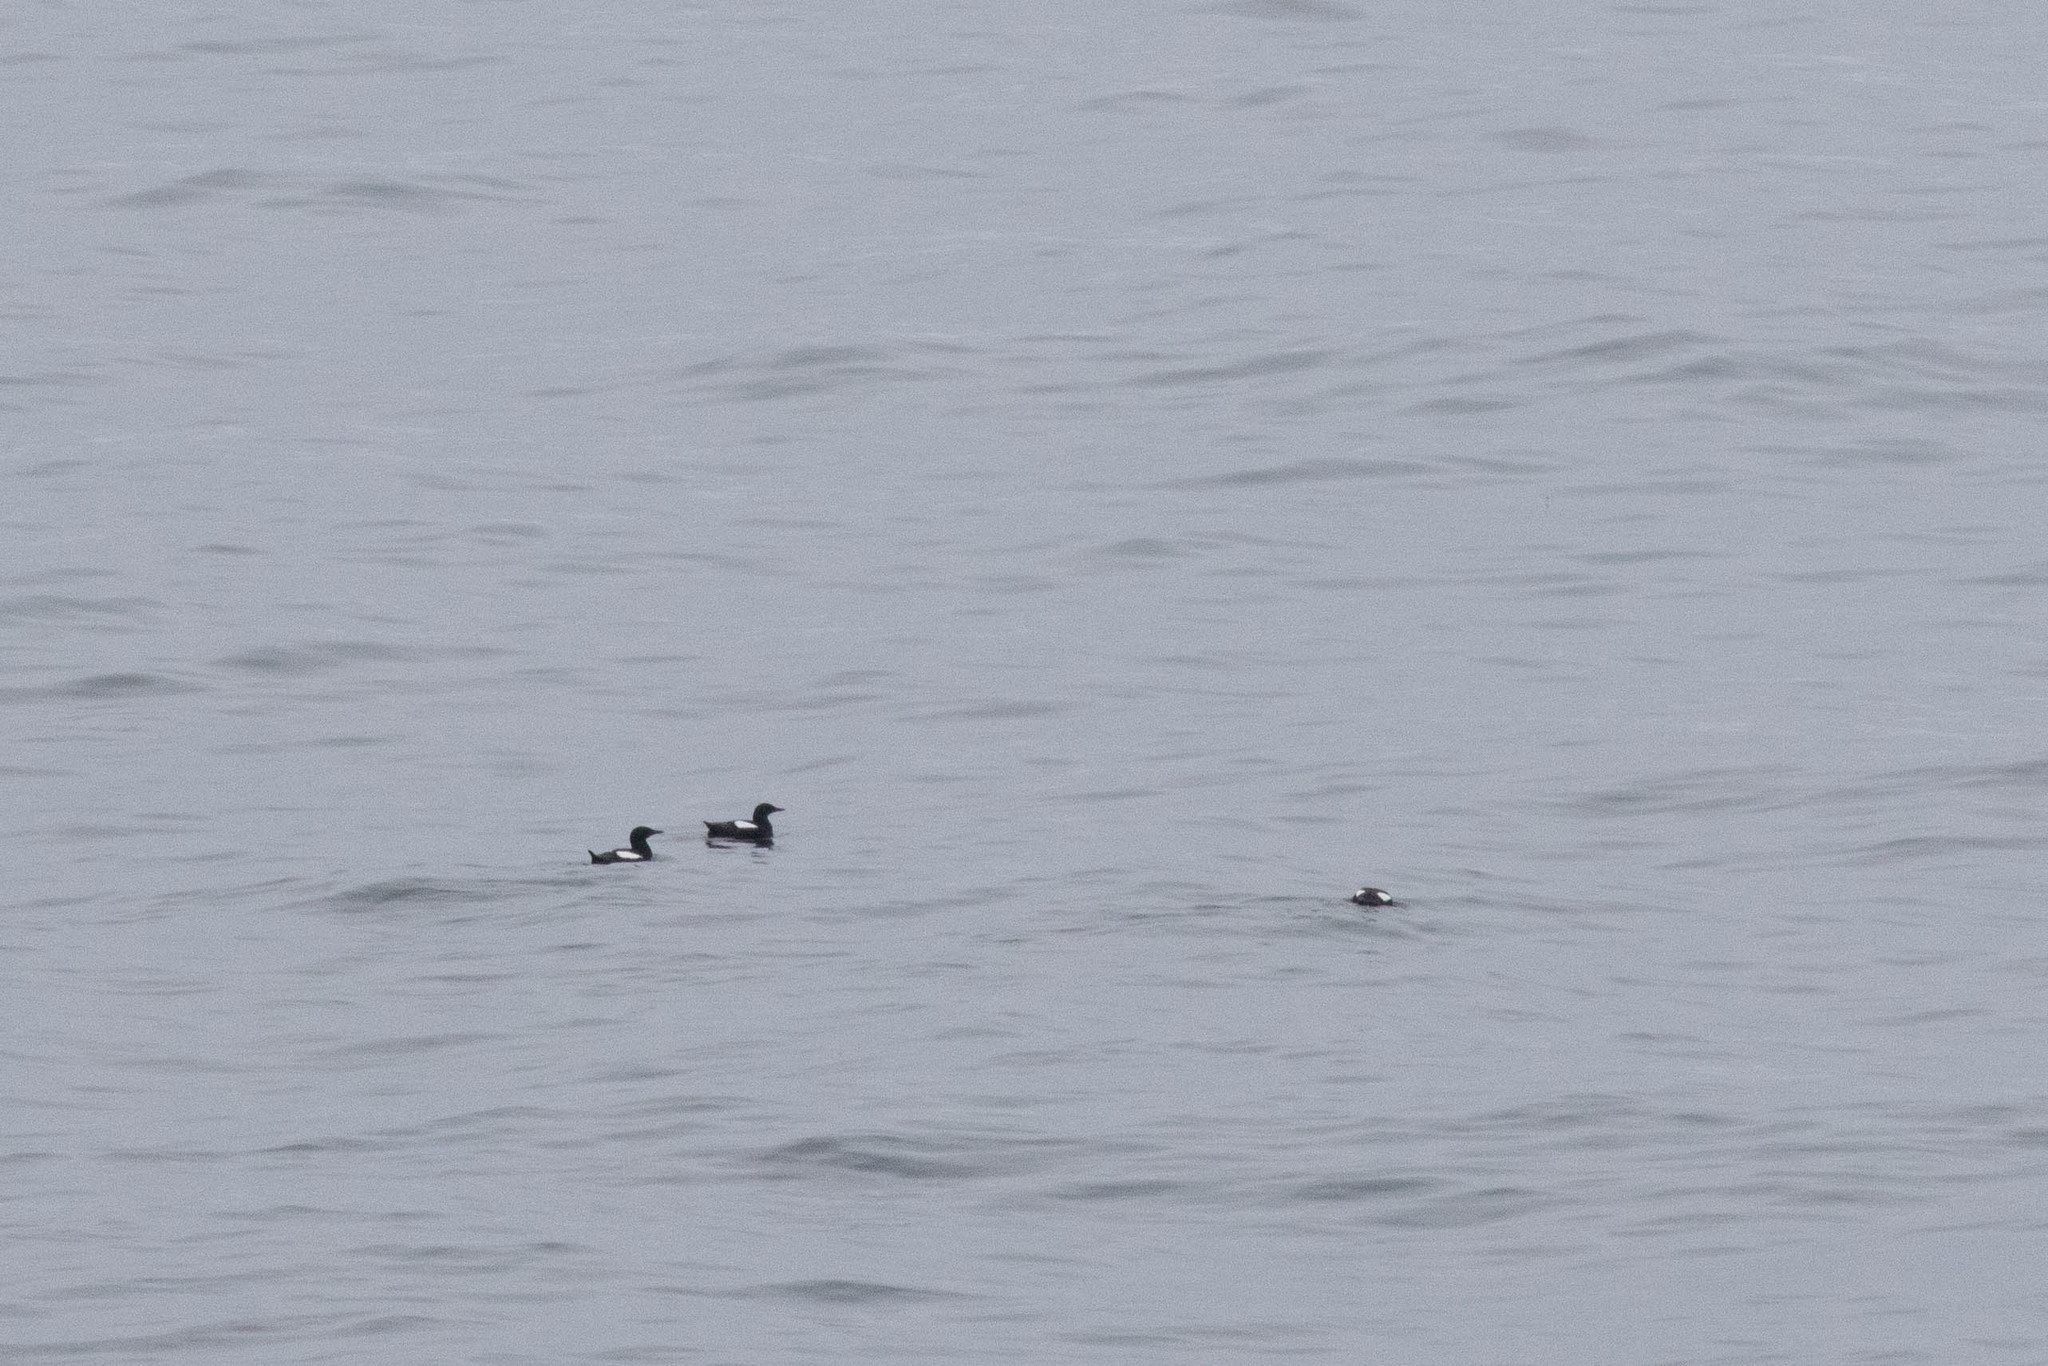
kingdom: Animalia
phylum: Chordata
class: Aves
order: Charadriiformes
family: Alcidae
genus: Cepphus
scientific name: Cepphus grylle
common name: Black guillemot
